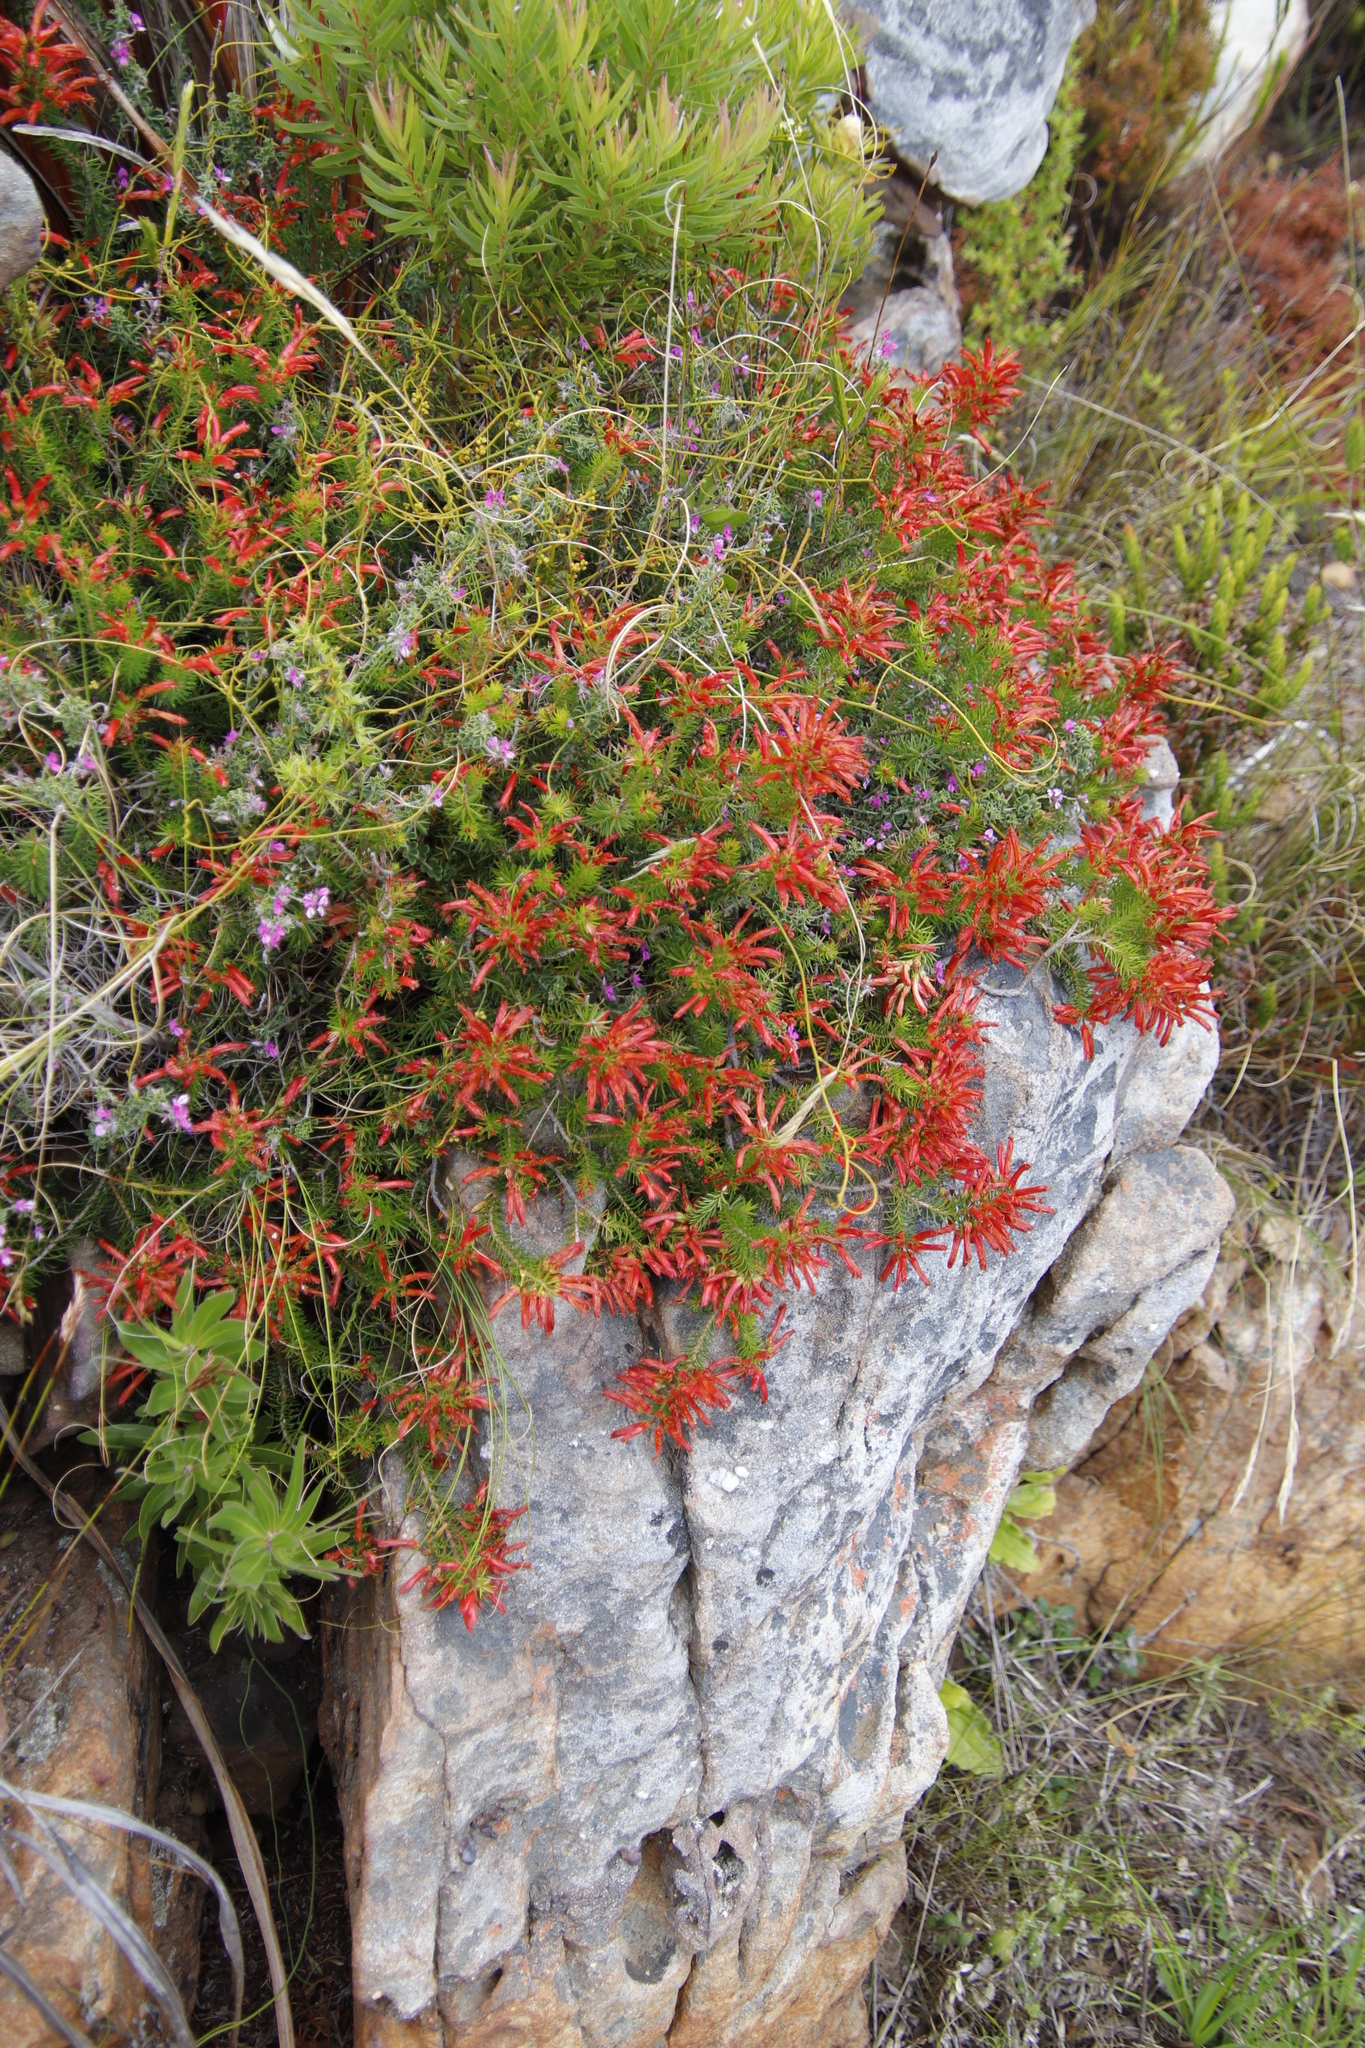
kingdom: Plantae
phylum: Tracheophyta
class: Magnoliopsida
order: Ericales
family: Ericaceae
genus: Erica
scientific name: Erica nevillei
